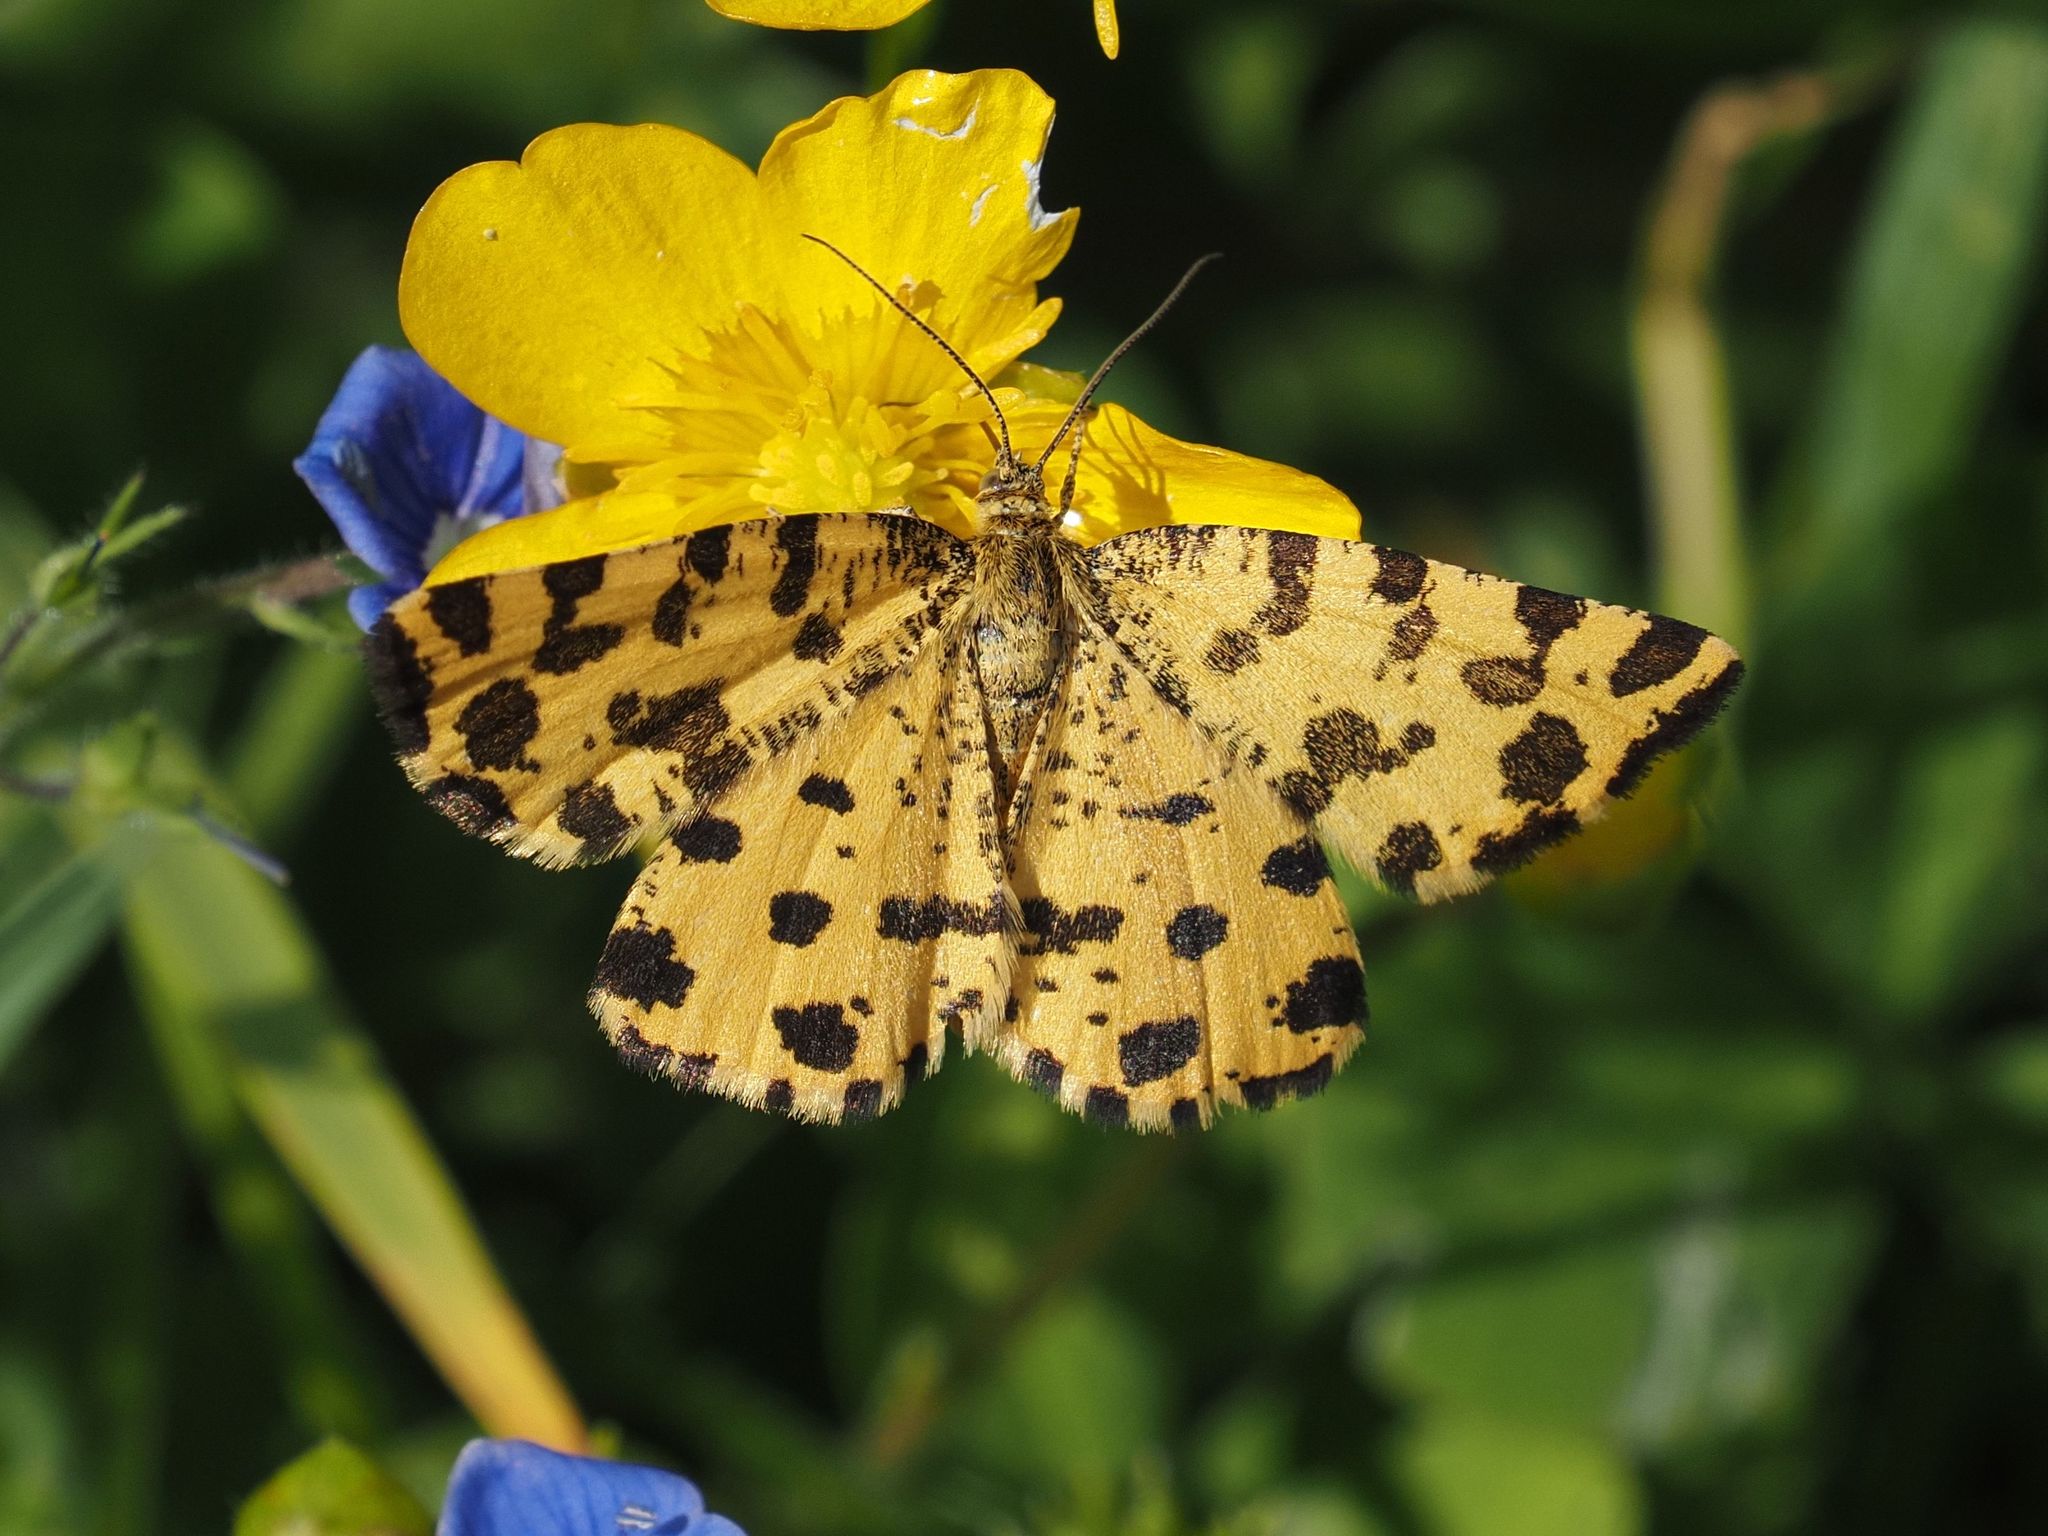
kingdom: Animalia
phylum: Arthropoda
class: Insecta
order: Lepidoptera
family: Geometridae
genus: Pseudopanthera
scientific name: Pseudopanthera macularia
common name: Speckled yellow
